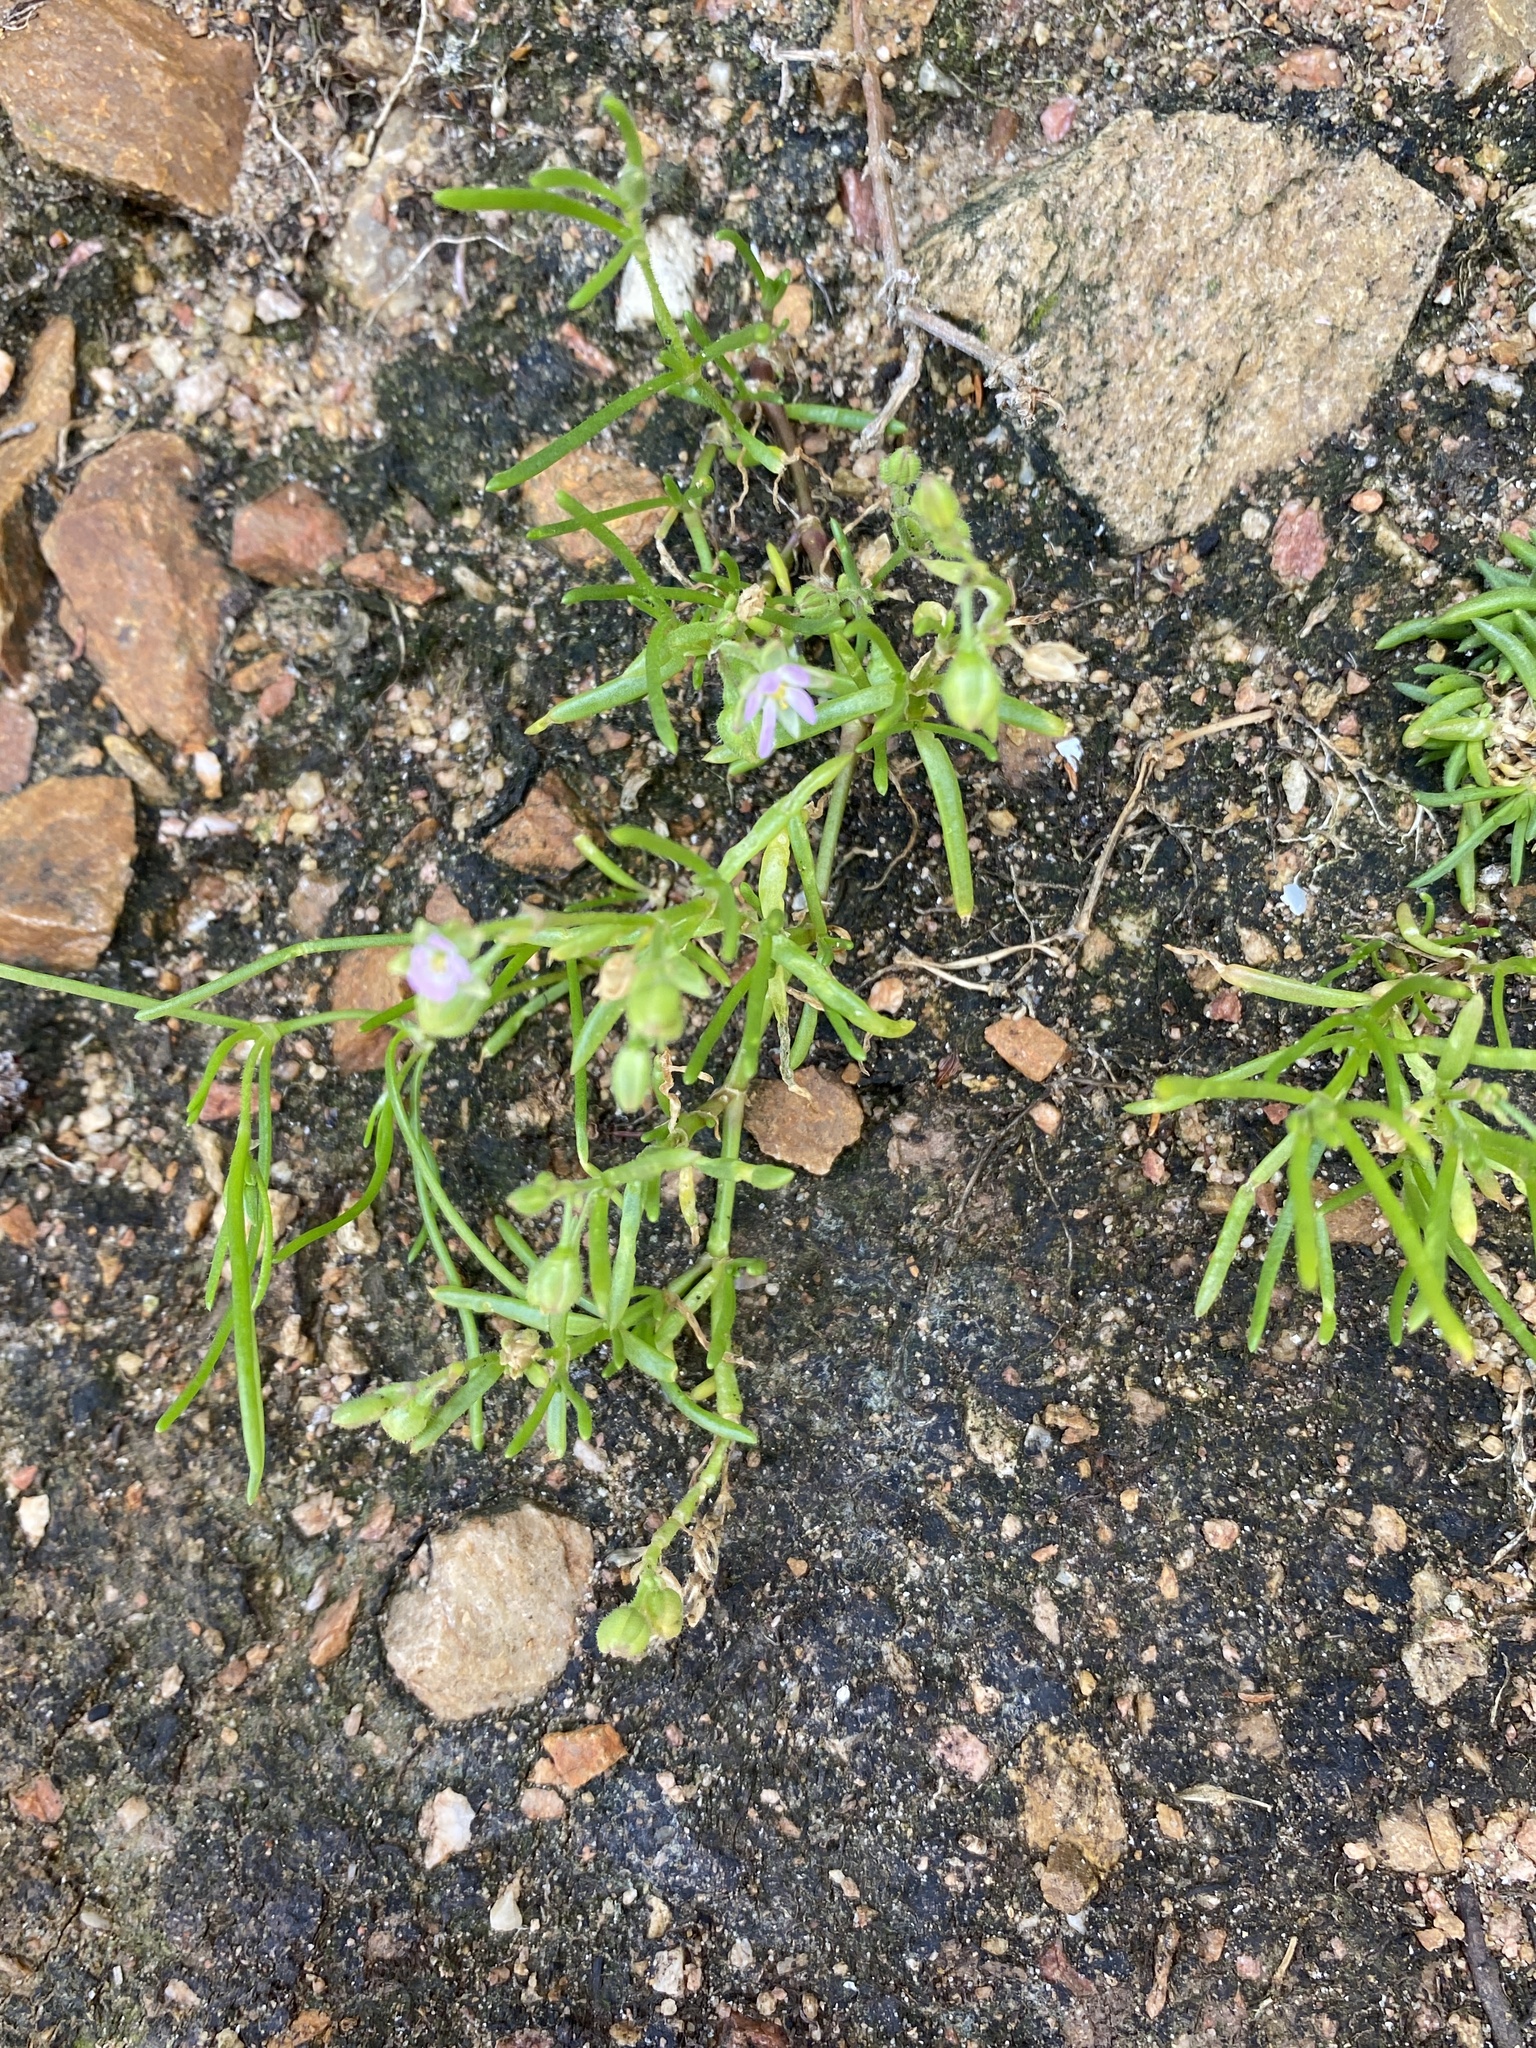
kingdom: Plantae
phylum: Tracheophyta
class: Magnoliopsida
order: Caryophyllales
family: Caryophyllaceae
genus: Spergularia
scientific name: Spergularia media
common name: Greater sea-spurrey
